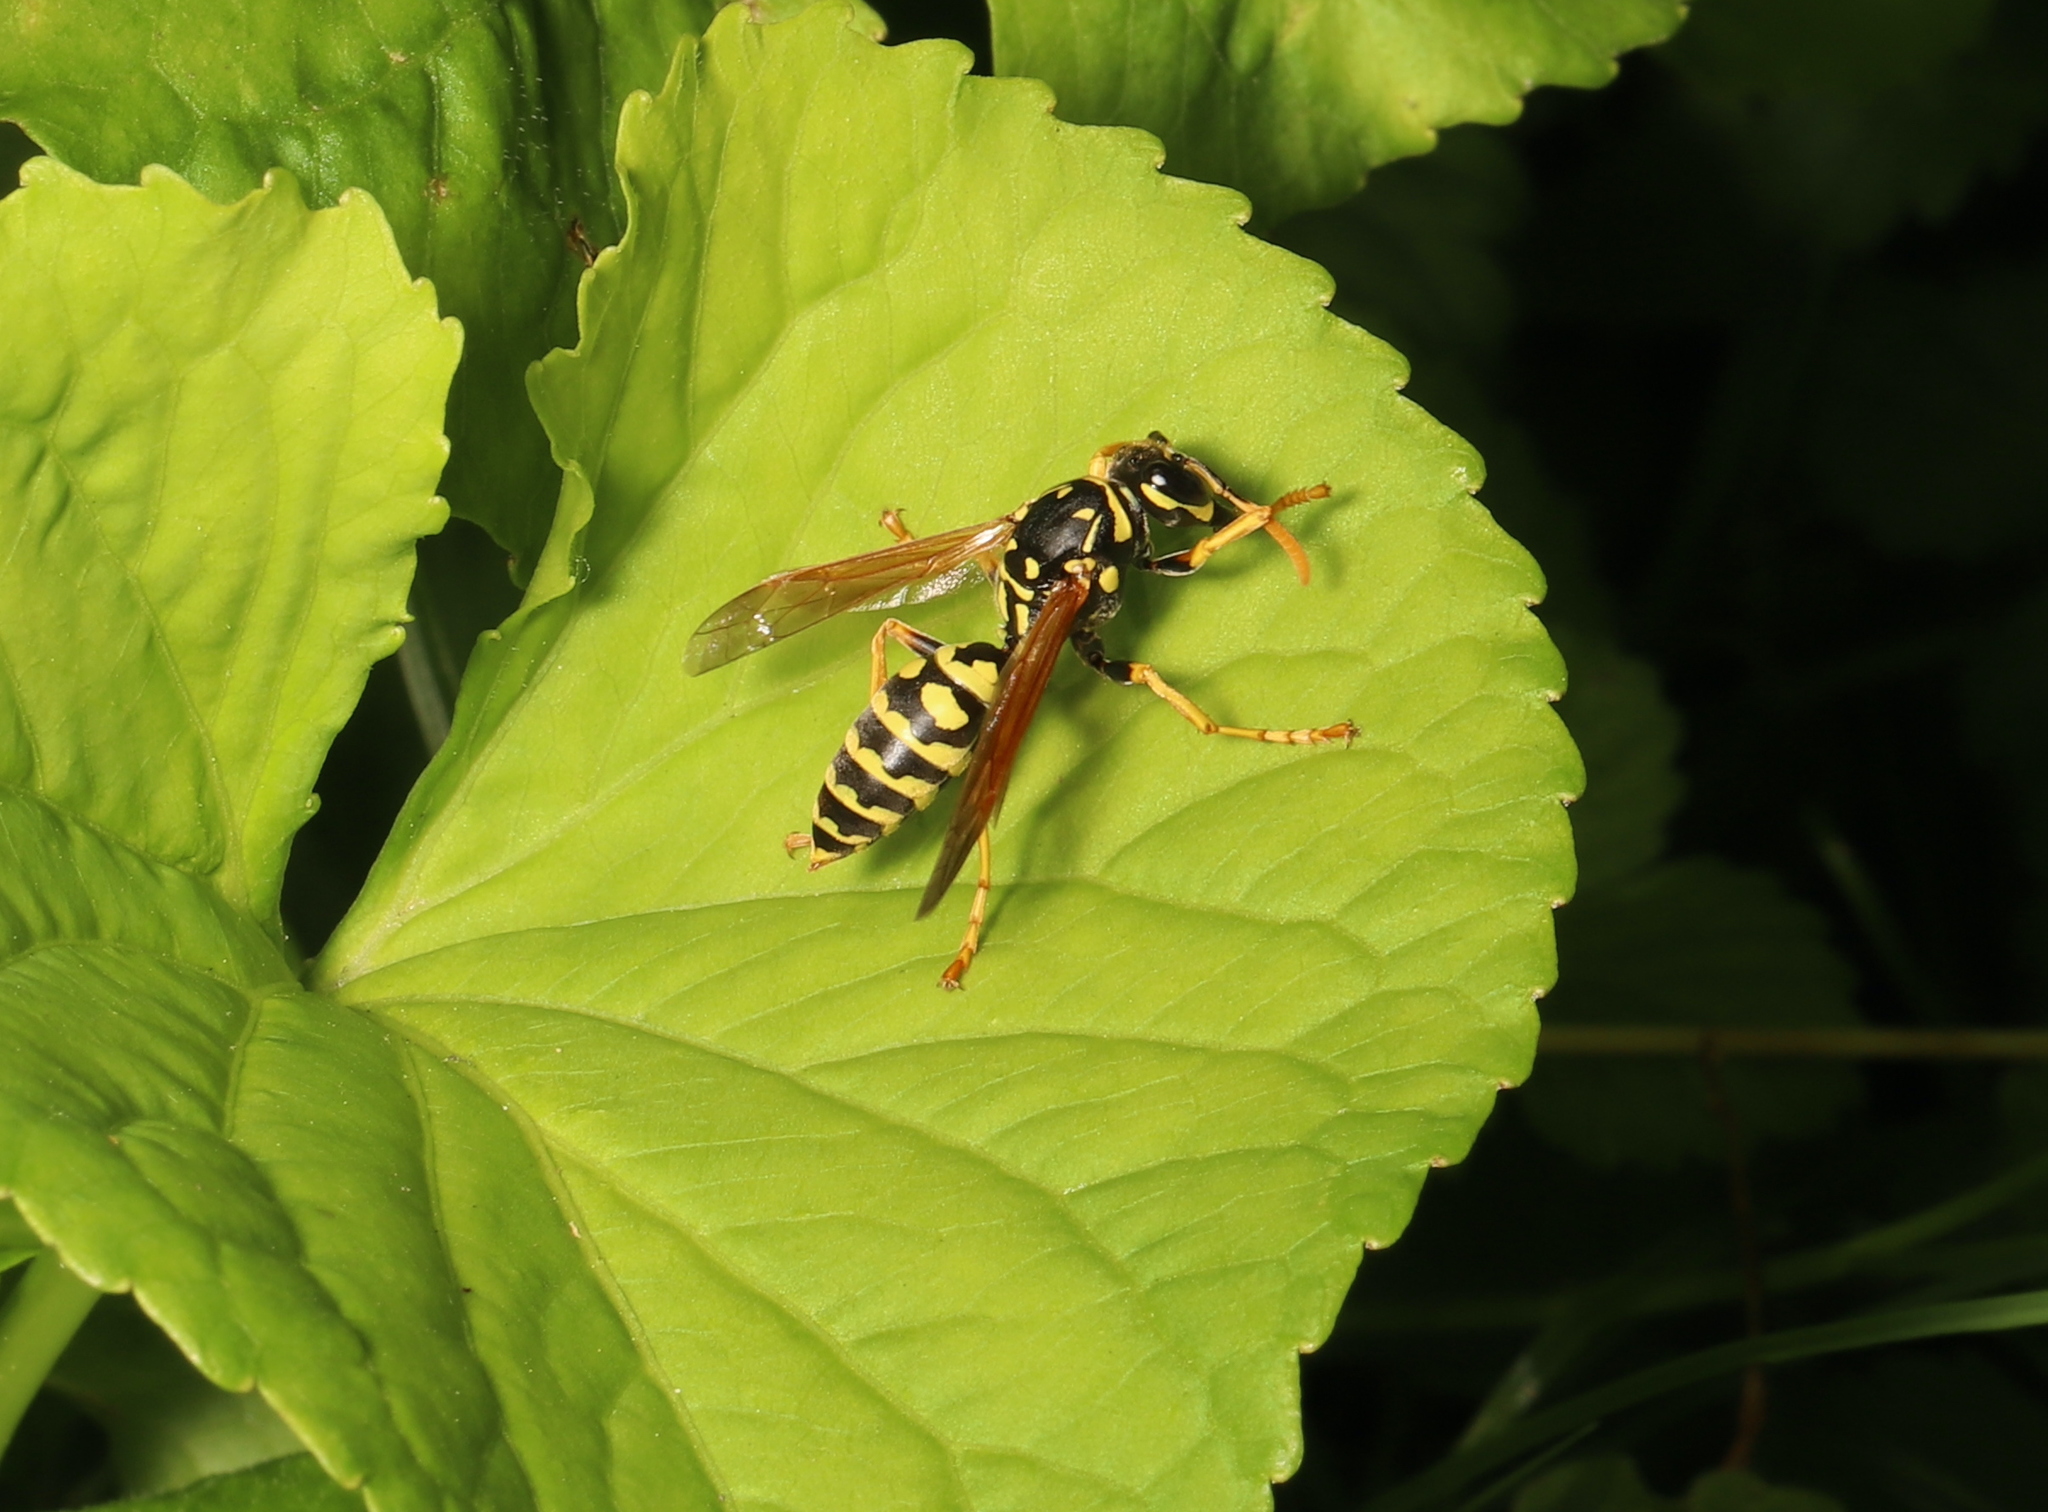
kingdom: Animalia
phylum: Arthropoda
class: Insecta
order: Hymenoptera
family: Eumenidae
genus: Polistes
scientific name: Polistes dominula
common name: Paper wasp
